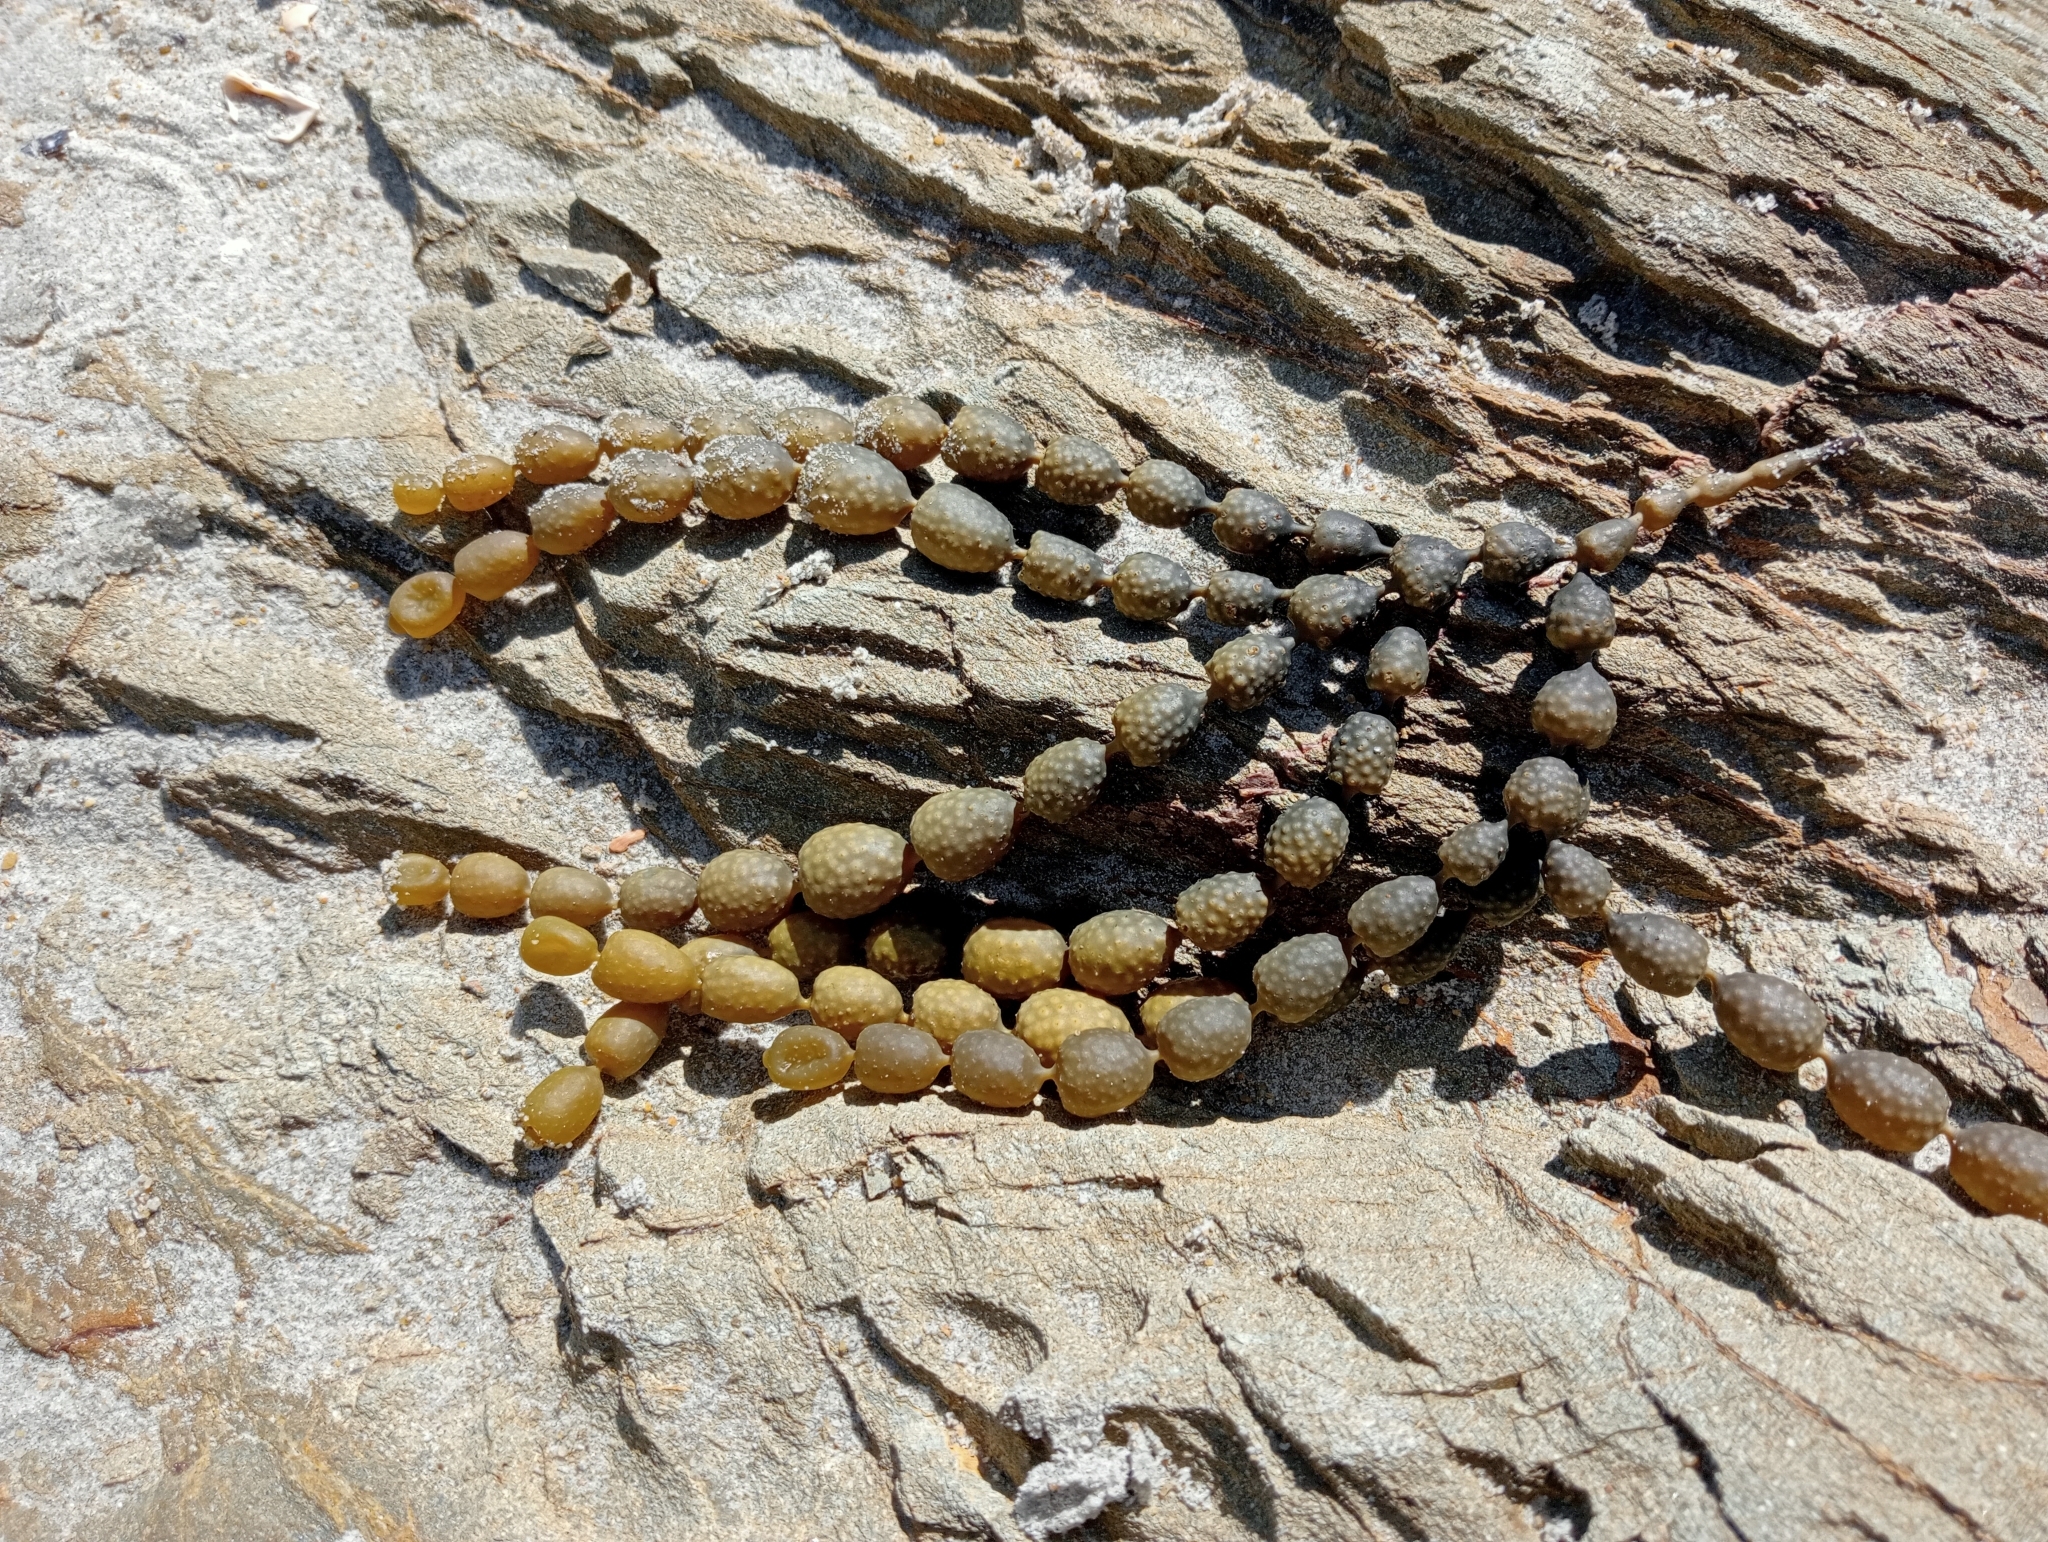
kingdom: Chromista
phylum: Ochrophyta
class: Phaeophyceae
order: Fucales
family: Hormosiraceae
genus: Hormosira
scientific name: Hormosira banksii
